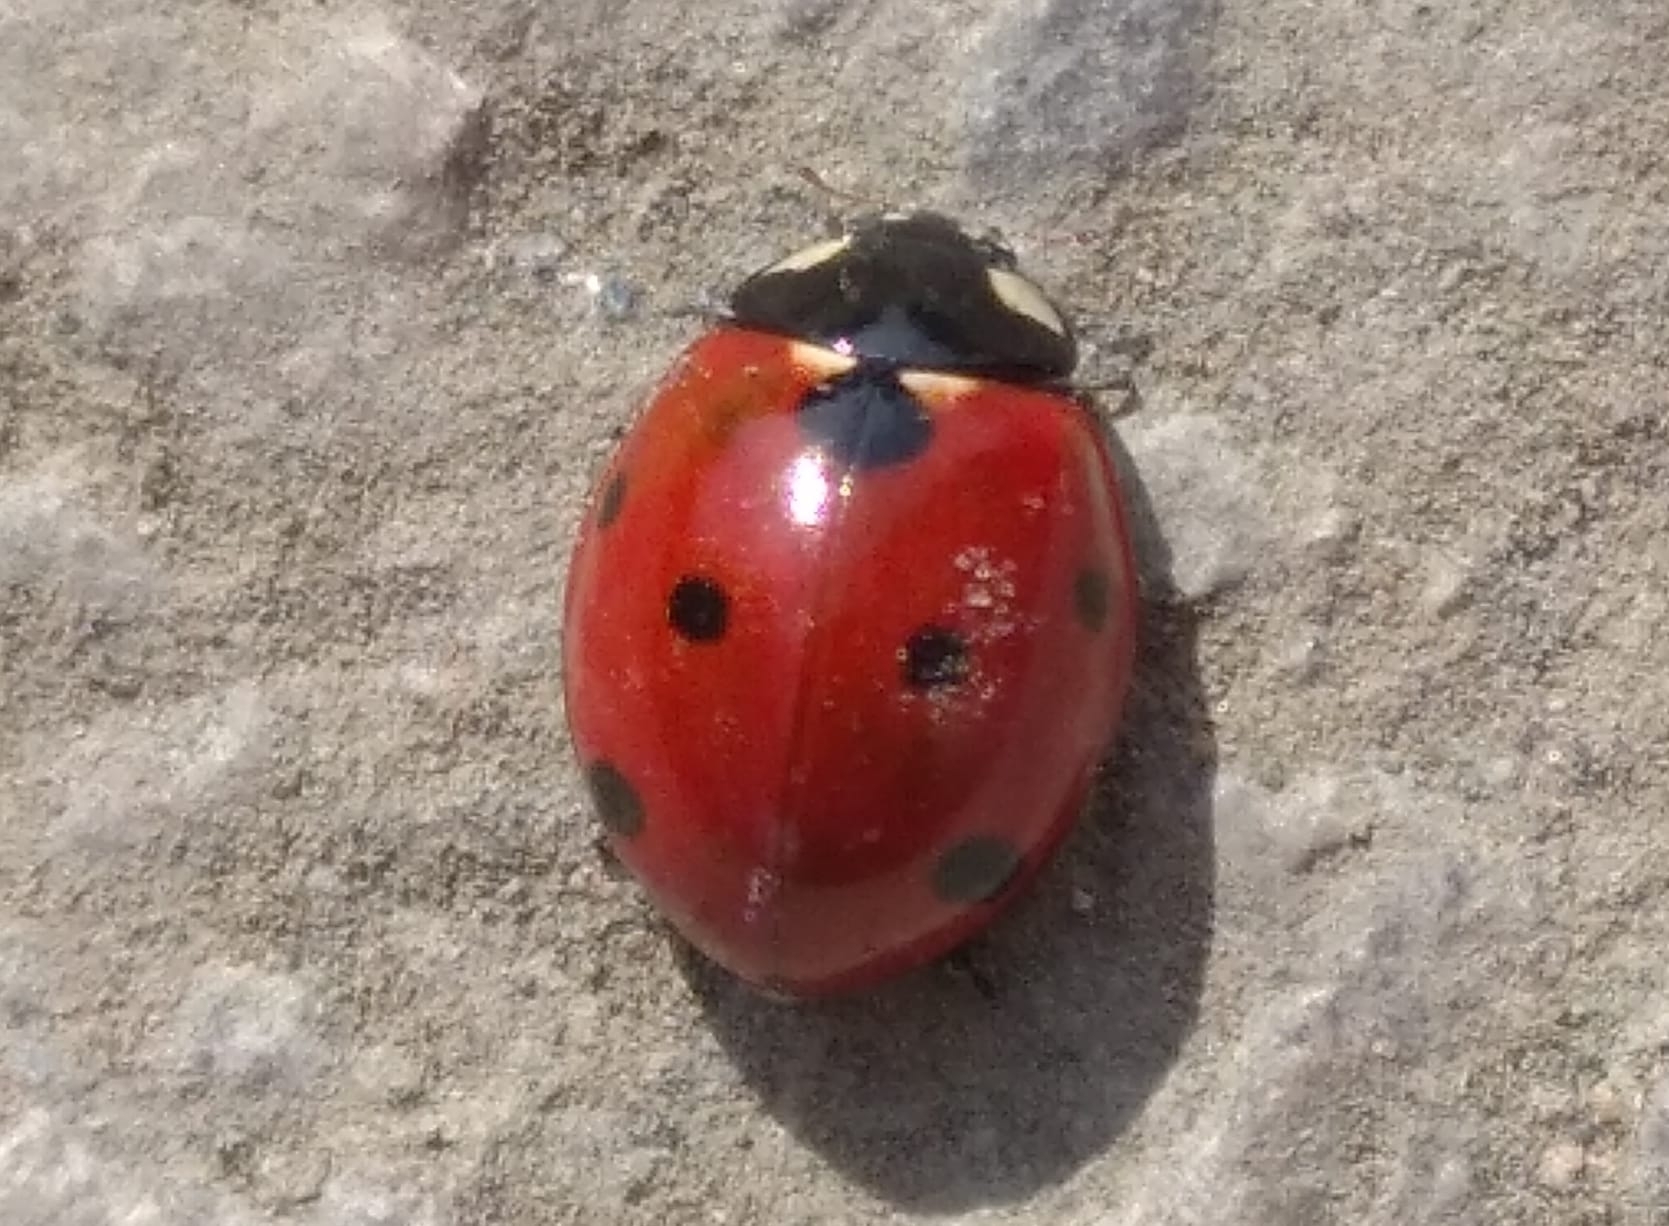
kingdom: Animalia
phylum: Arthropoda
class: Insecta
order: Coleoptera
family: Coccinellidae
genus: Coccinella
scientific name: Coccinella septempunctata
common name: Sevenspotted lady beetle
